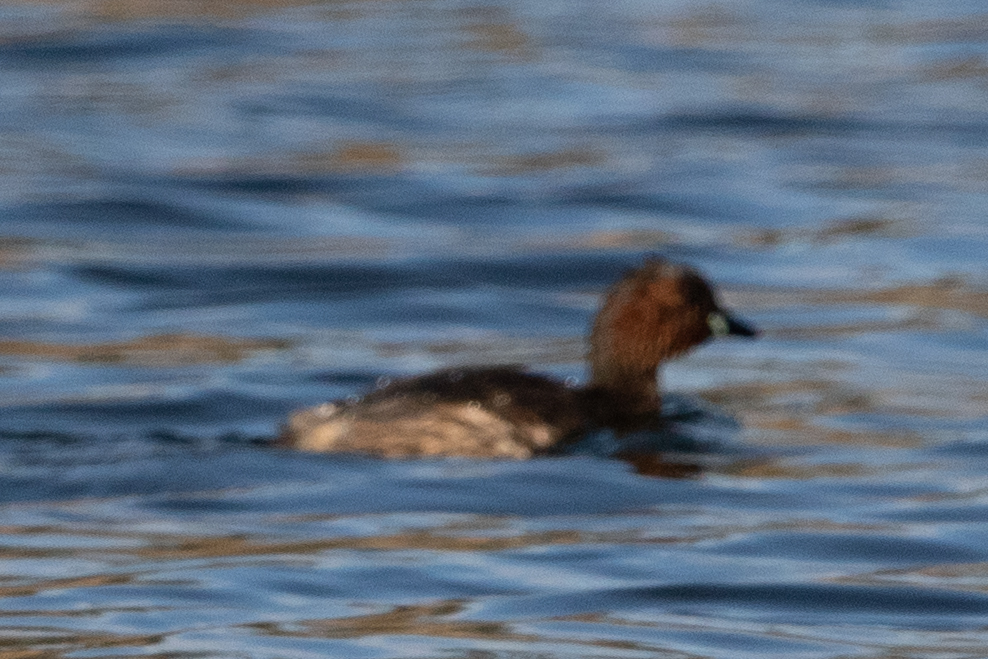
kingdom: Animalia
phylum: Chordata
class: Aves
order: Podicipediformes
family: Podicipedidae
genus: Tachybaptus
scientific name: Tachybaptus ruficollis
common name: Little grebe
